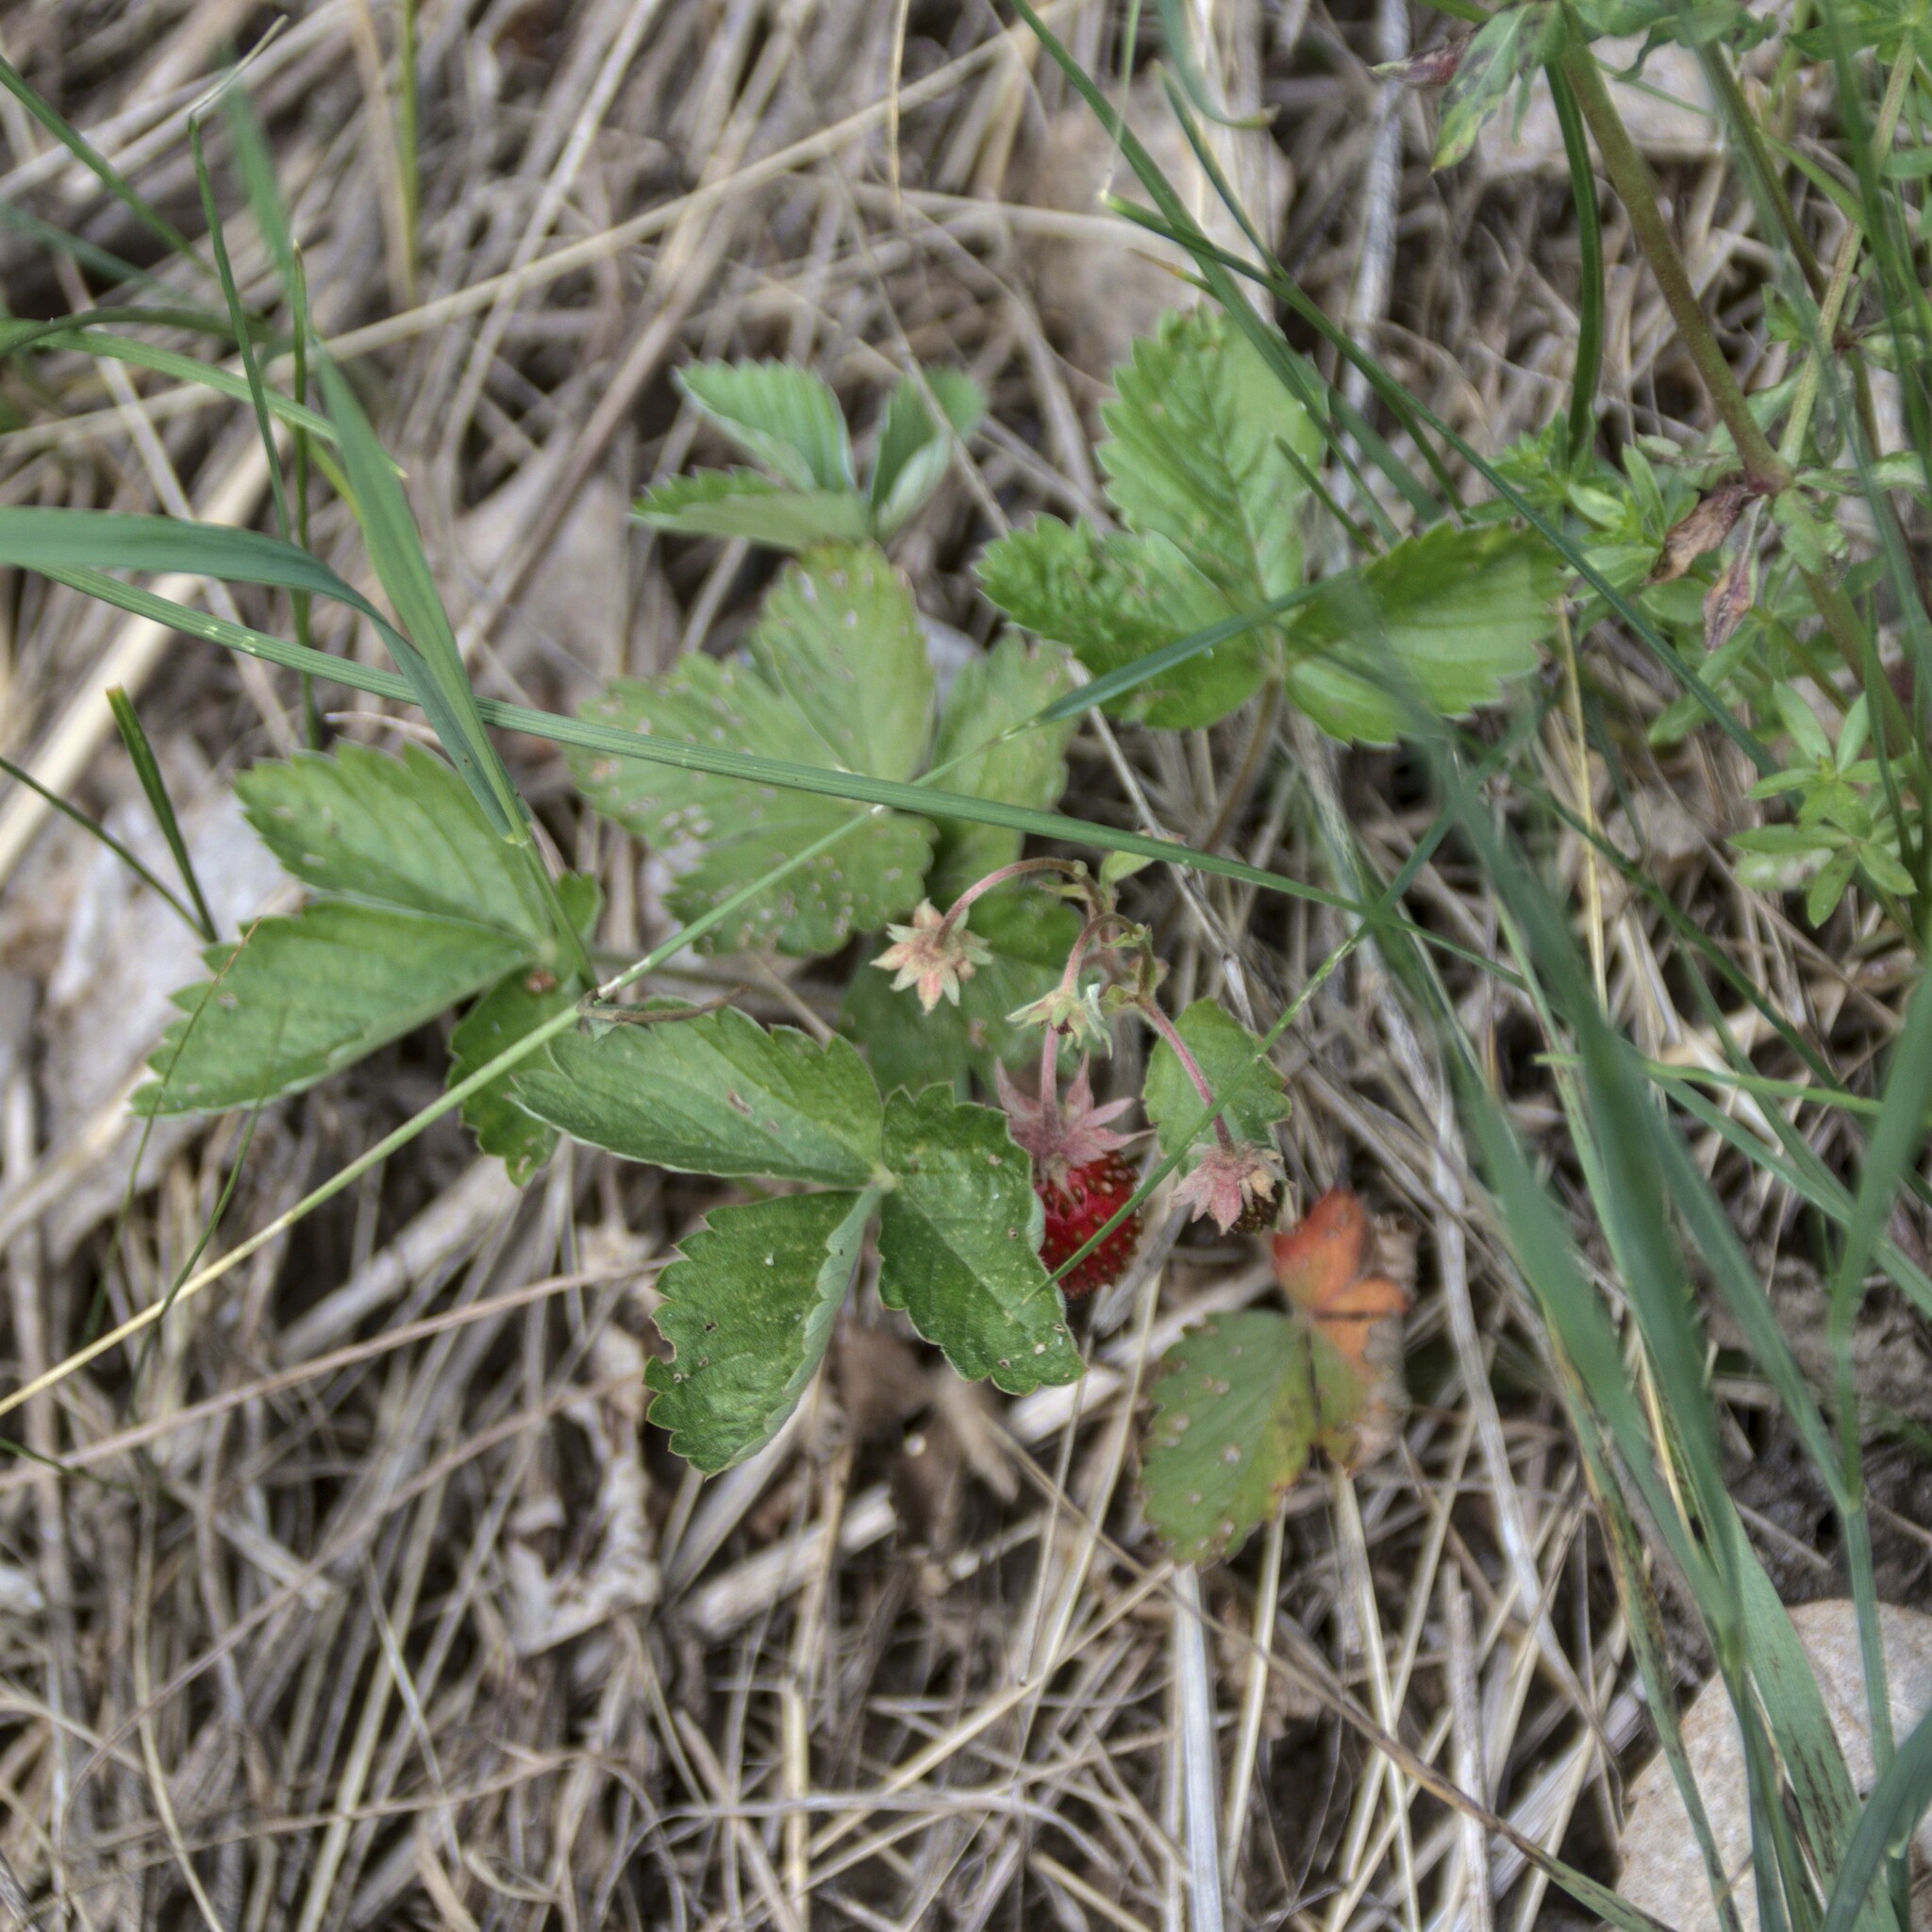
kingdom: Plantae
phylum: Tracheophyta
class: Magnoliopsida
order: Rosales
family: Rosaceae
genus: Fragaria
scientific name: Fragaria vesca
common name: Wild strawberry
